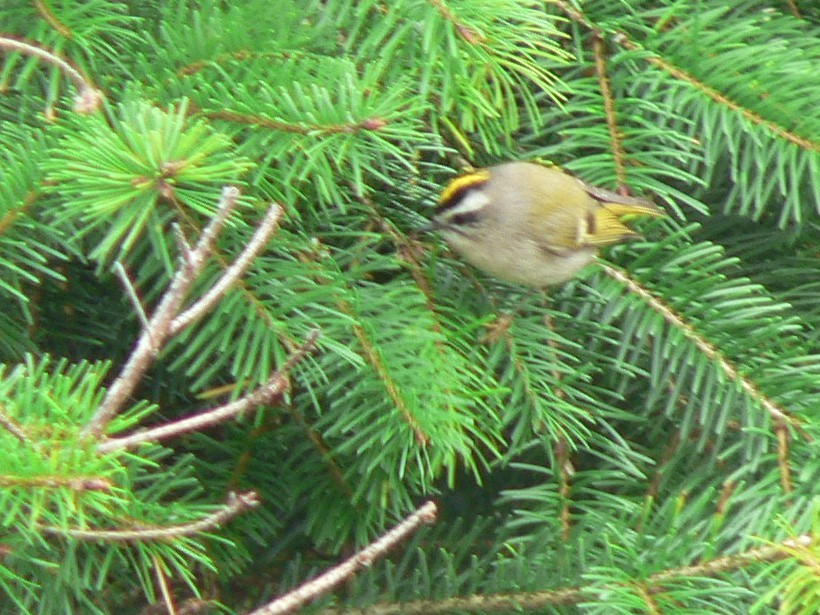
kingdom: Animalia
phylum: Chordata
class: Aves
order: Passeriformes
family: Regulidae
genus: Regulus
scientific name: Regulus satrapa
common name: Golden-crowned kinglet
